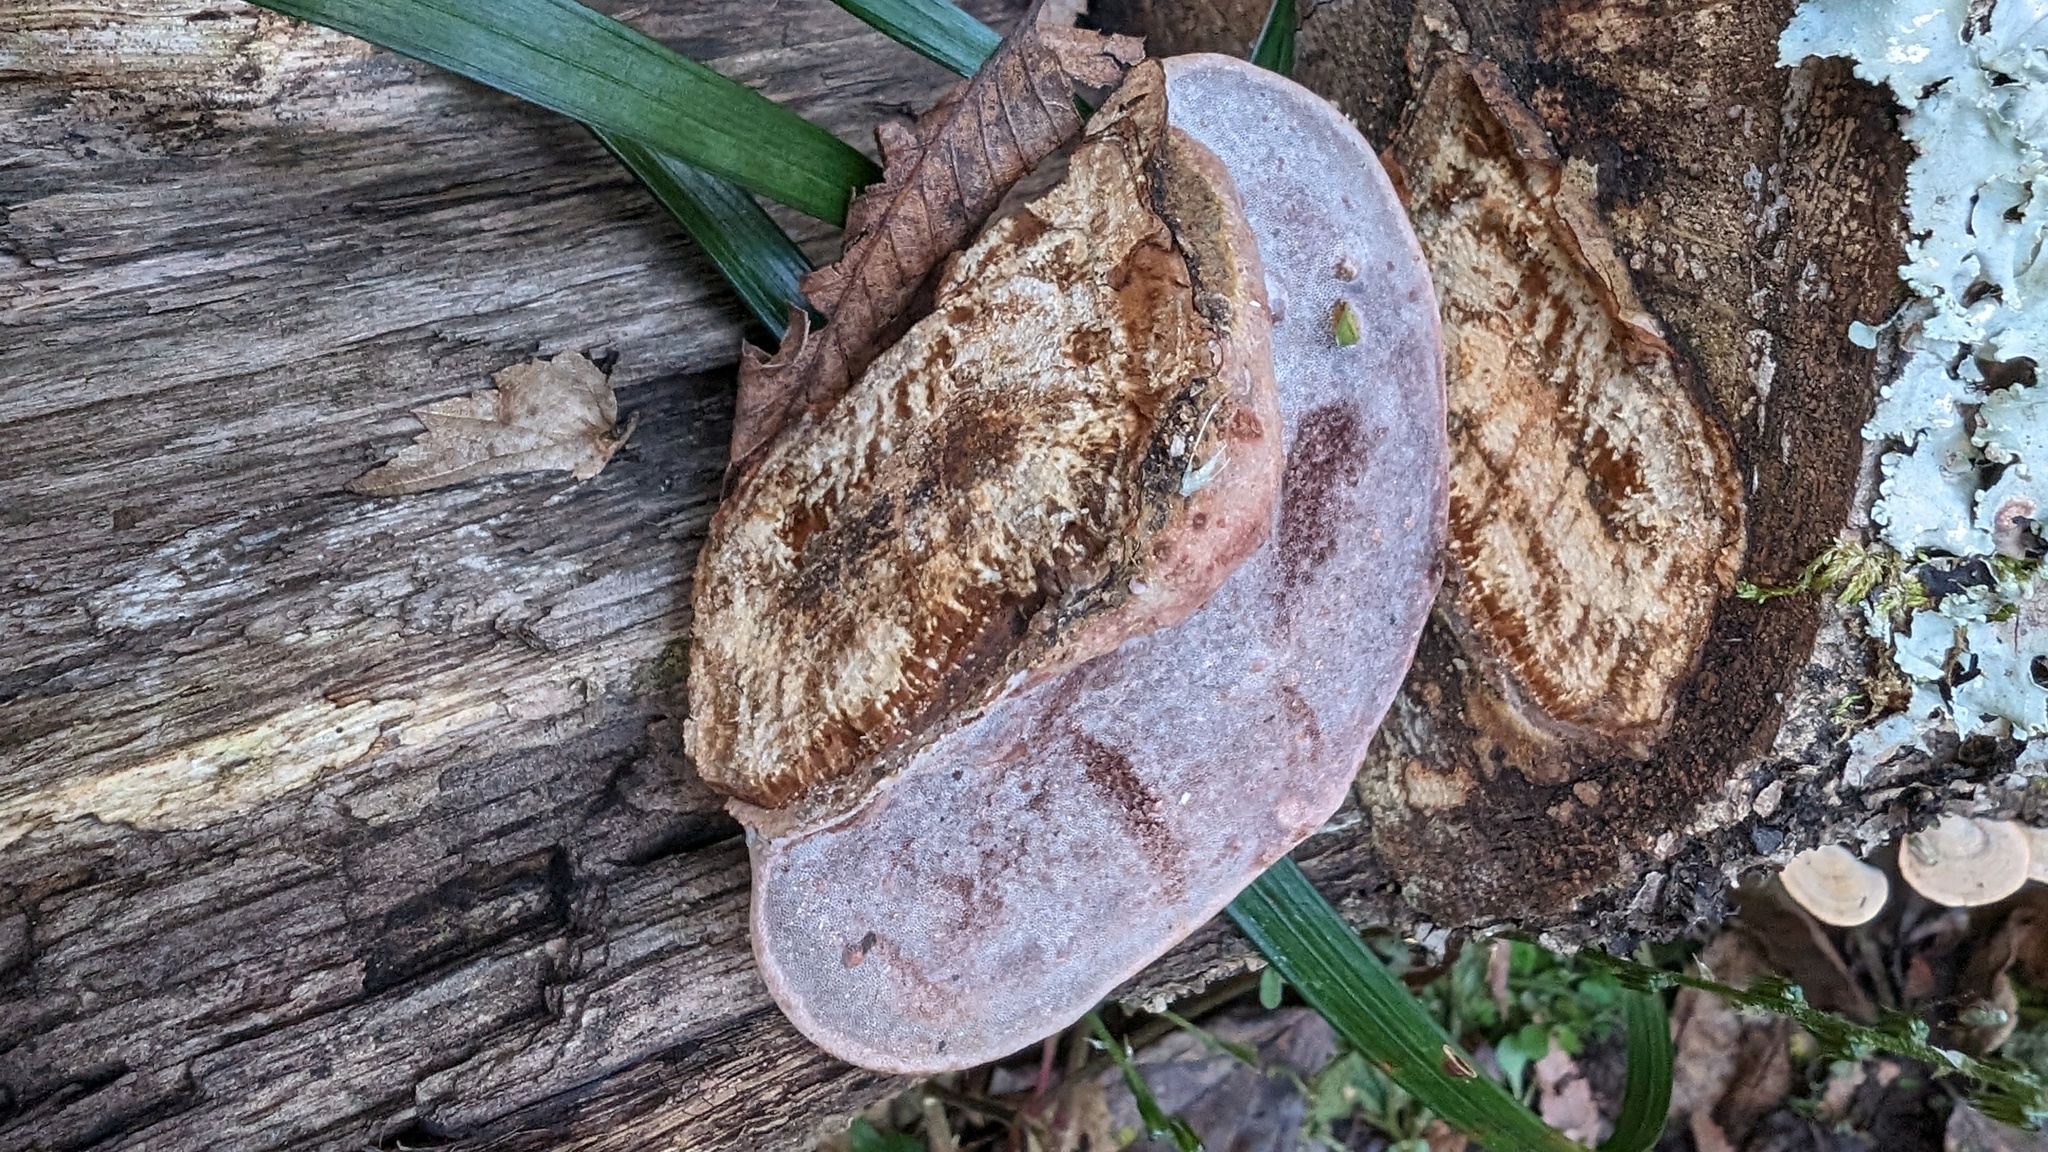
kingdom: Fungi
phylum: Basidiomycota
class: Agaricomycetes
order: Polyporales
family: Polyporaceae
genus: Abundisporus
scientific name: Abundisporus pubertatis
